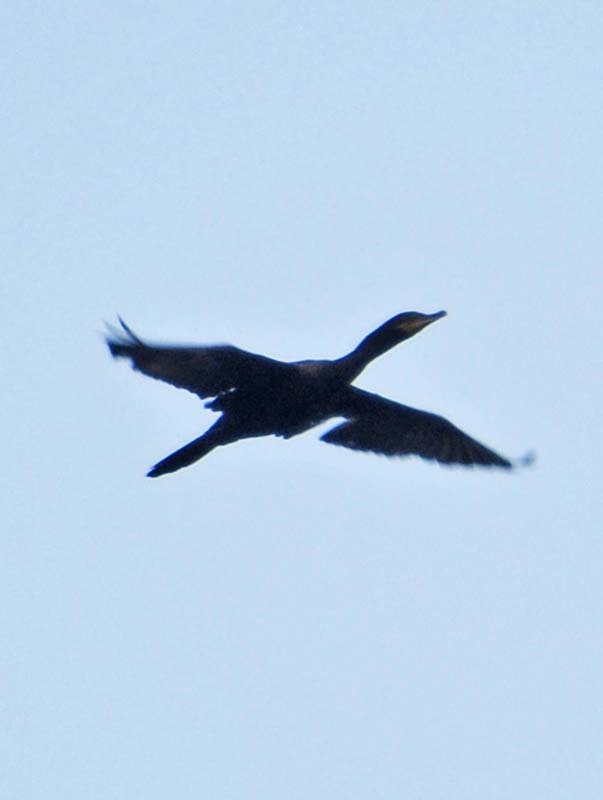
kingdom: Animalia
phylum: Chordata
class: Aves
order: Suliformes
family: Phalacrocoracidae
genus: Phalacrocorax
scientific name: Phalacrocorax brasilianus
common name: Neotropic cormorant
